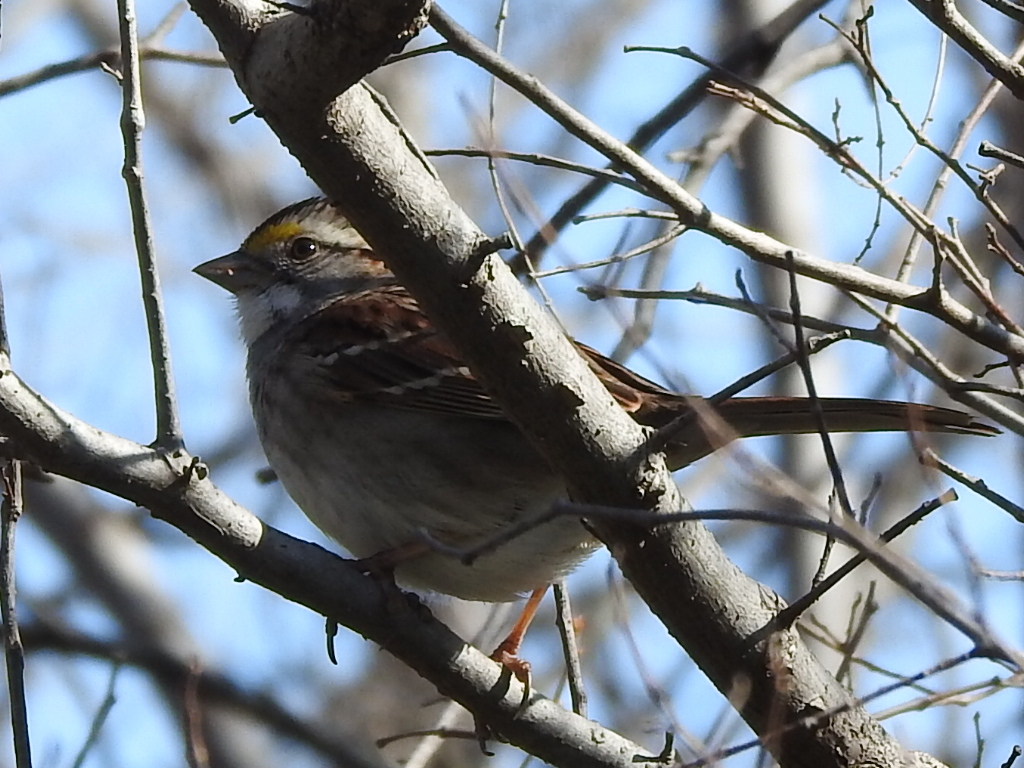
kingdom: Animalia
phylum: Chordata
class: Aves
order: Passeriformes
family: Passerellidae
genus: Zonotrichia
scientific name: Zonotrichia albicollis
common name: White-throated sparrow
